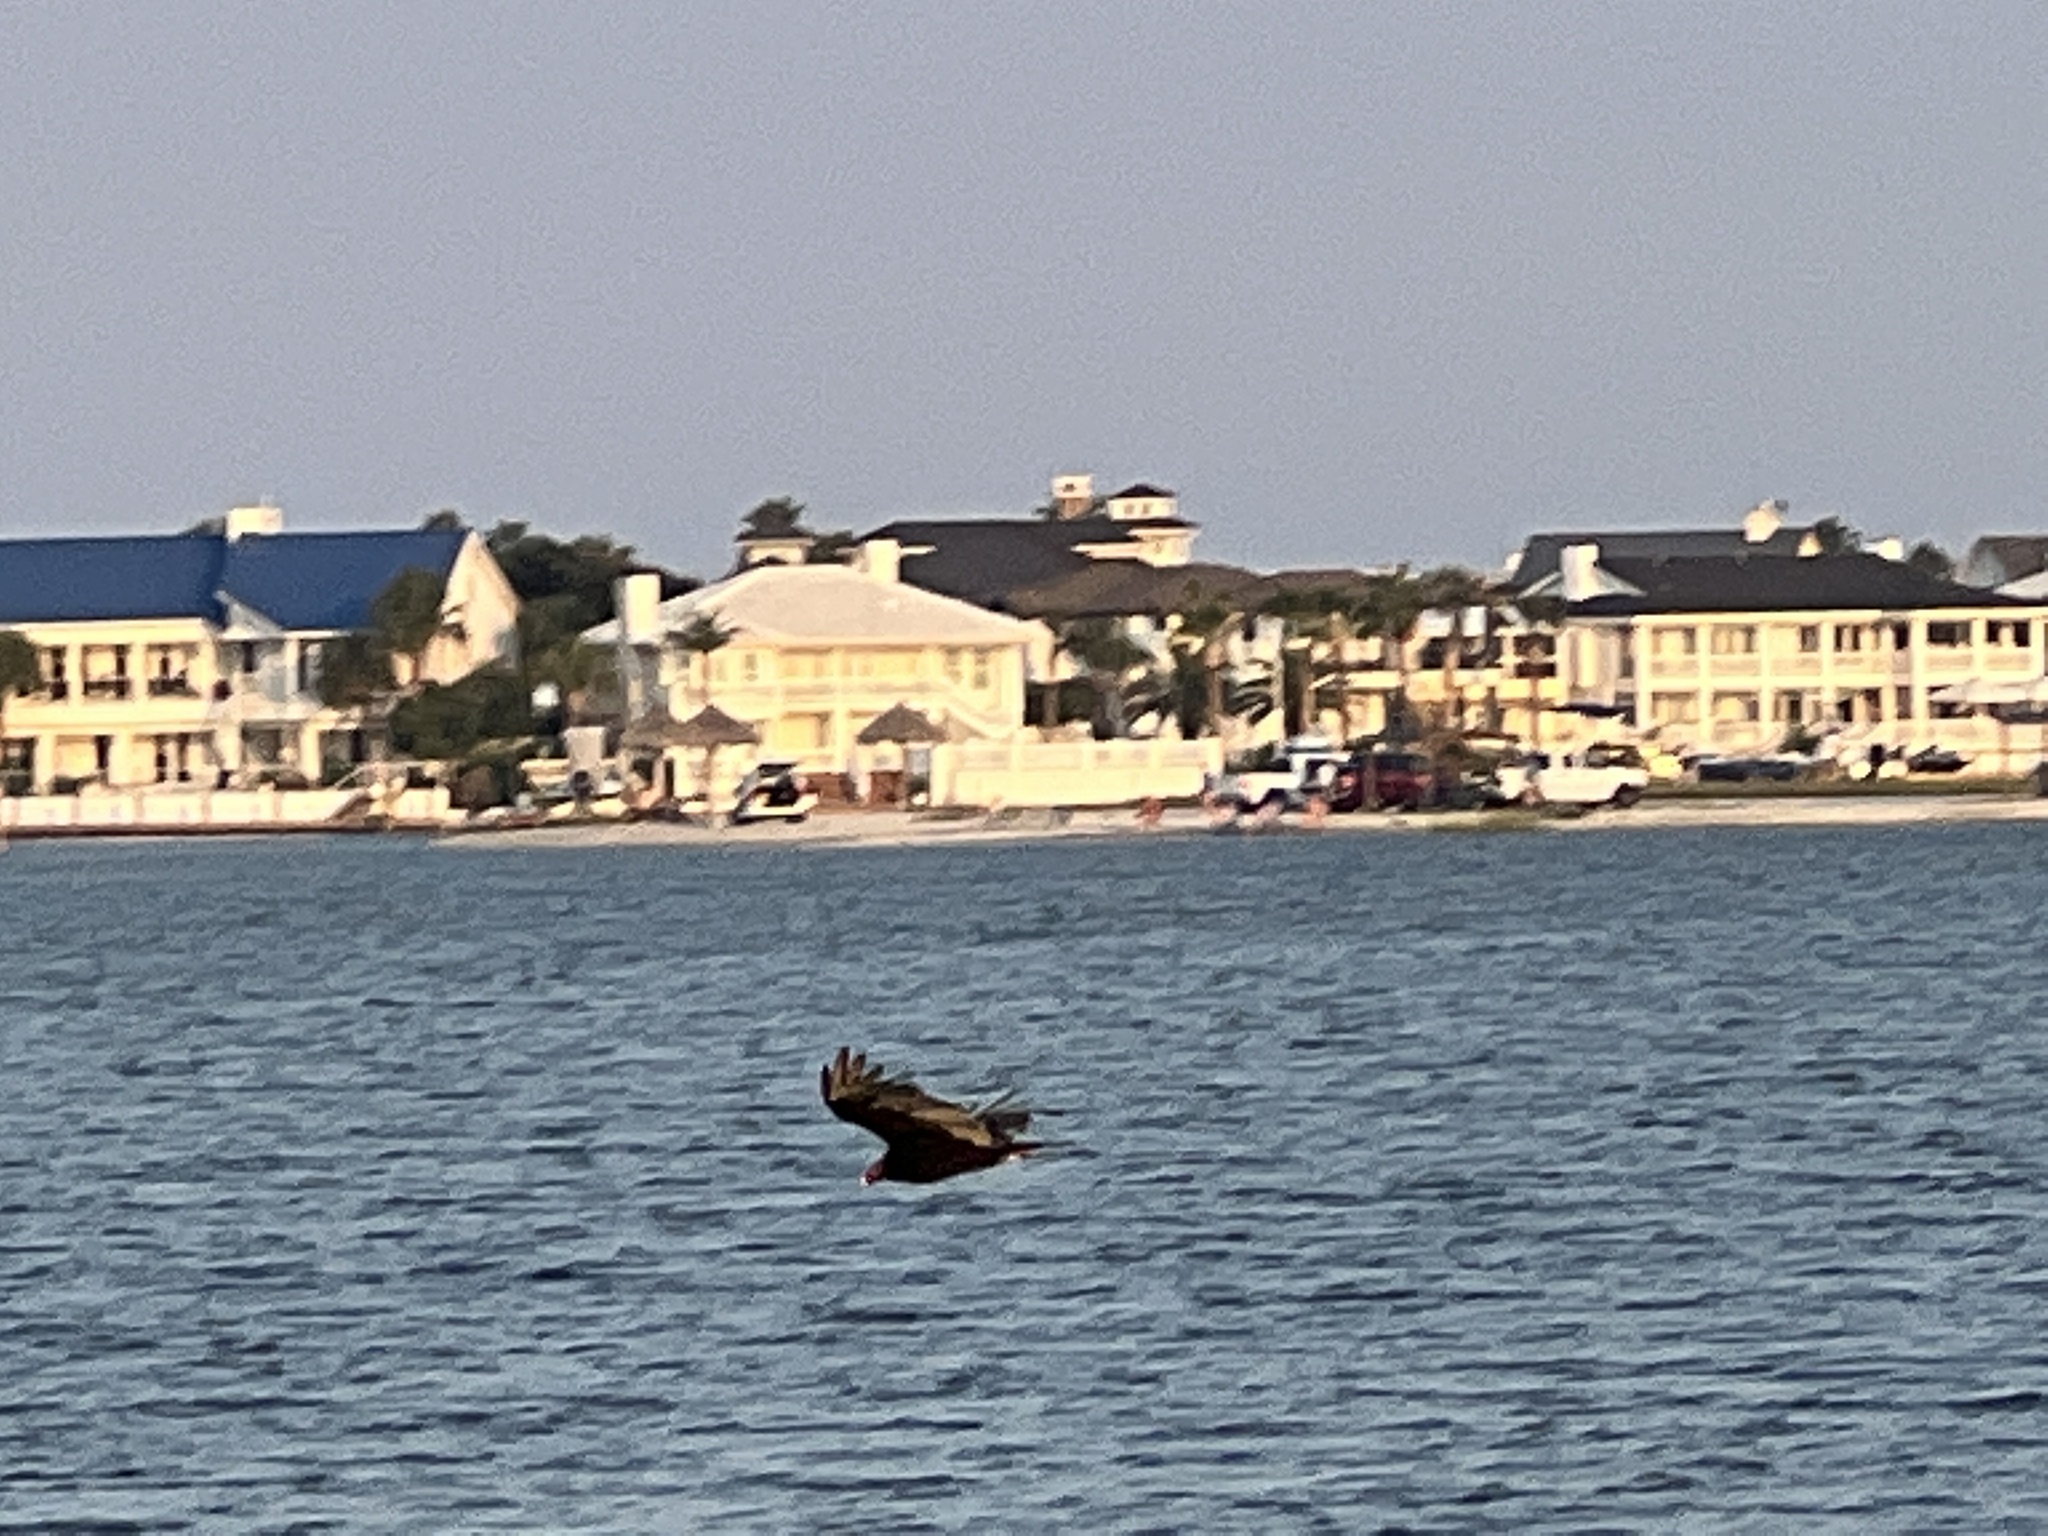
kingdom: Animalia
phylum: Chordata
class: Aves
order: Accipitriformes
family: Cathartidae
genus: Cathartes
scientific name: Cathartes aura
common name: Turkey vulture
